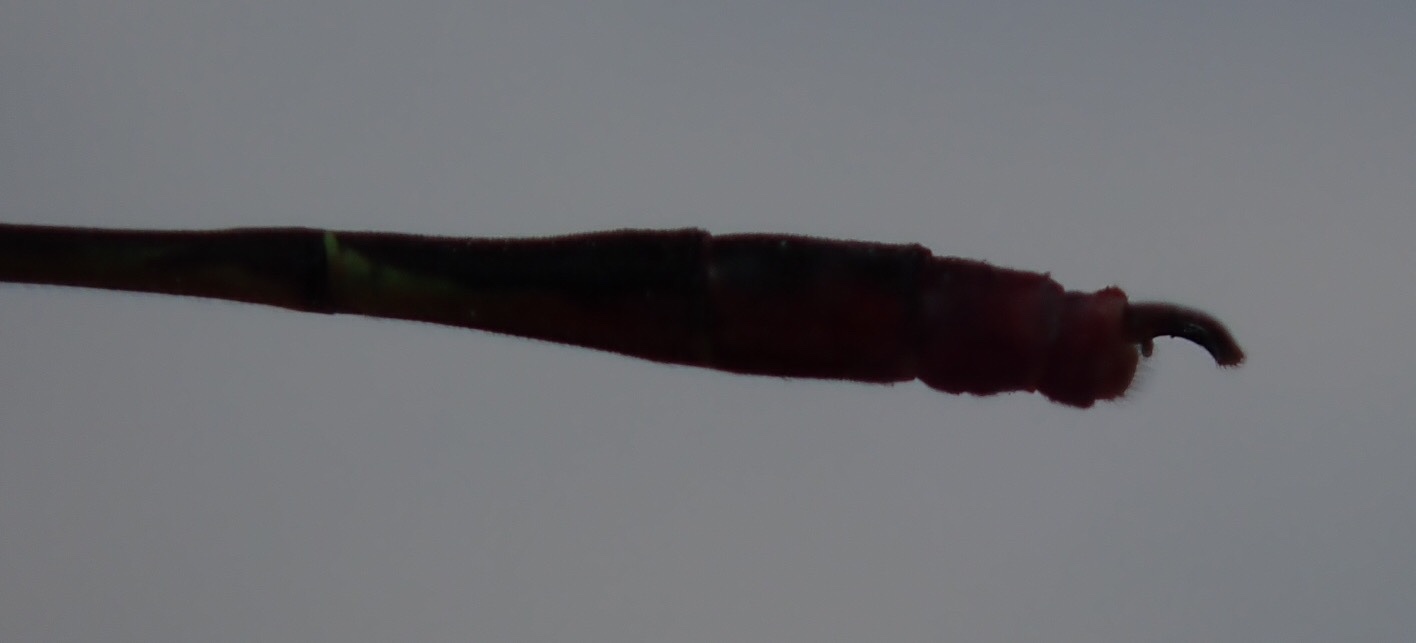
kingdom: Animalia
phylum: Arthropoda
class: Insecta
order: Odonata
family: Coenagrionidae
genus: Agriocnemis
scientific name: Agriocnemis victoria
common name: Lesser pincer-tailed wisp
